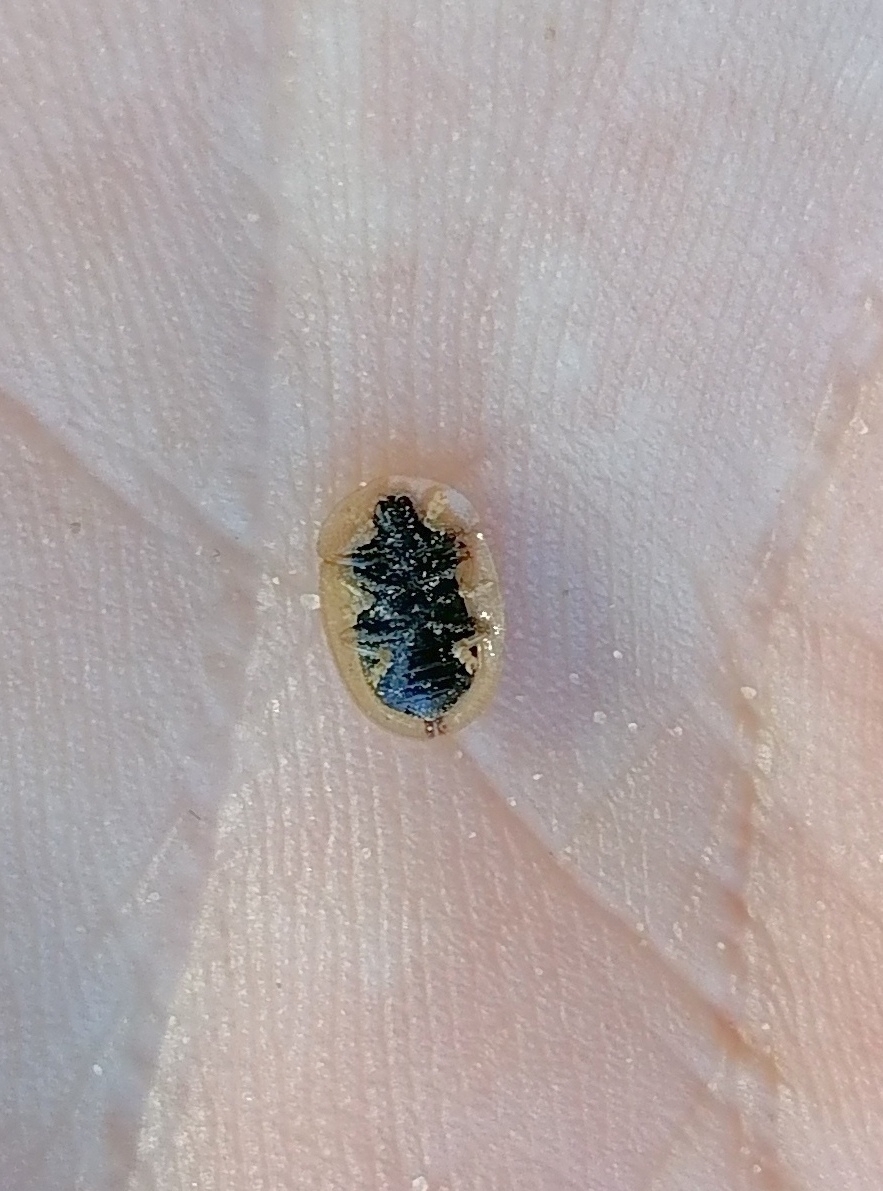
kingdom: Animalia
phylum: Arthropoda
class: Insecta
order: Coleoptera
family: Chrysomelidae
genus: Cassida
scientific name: Cassida vibex
